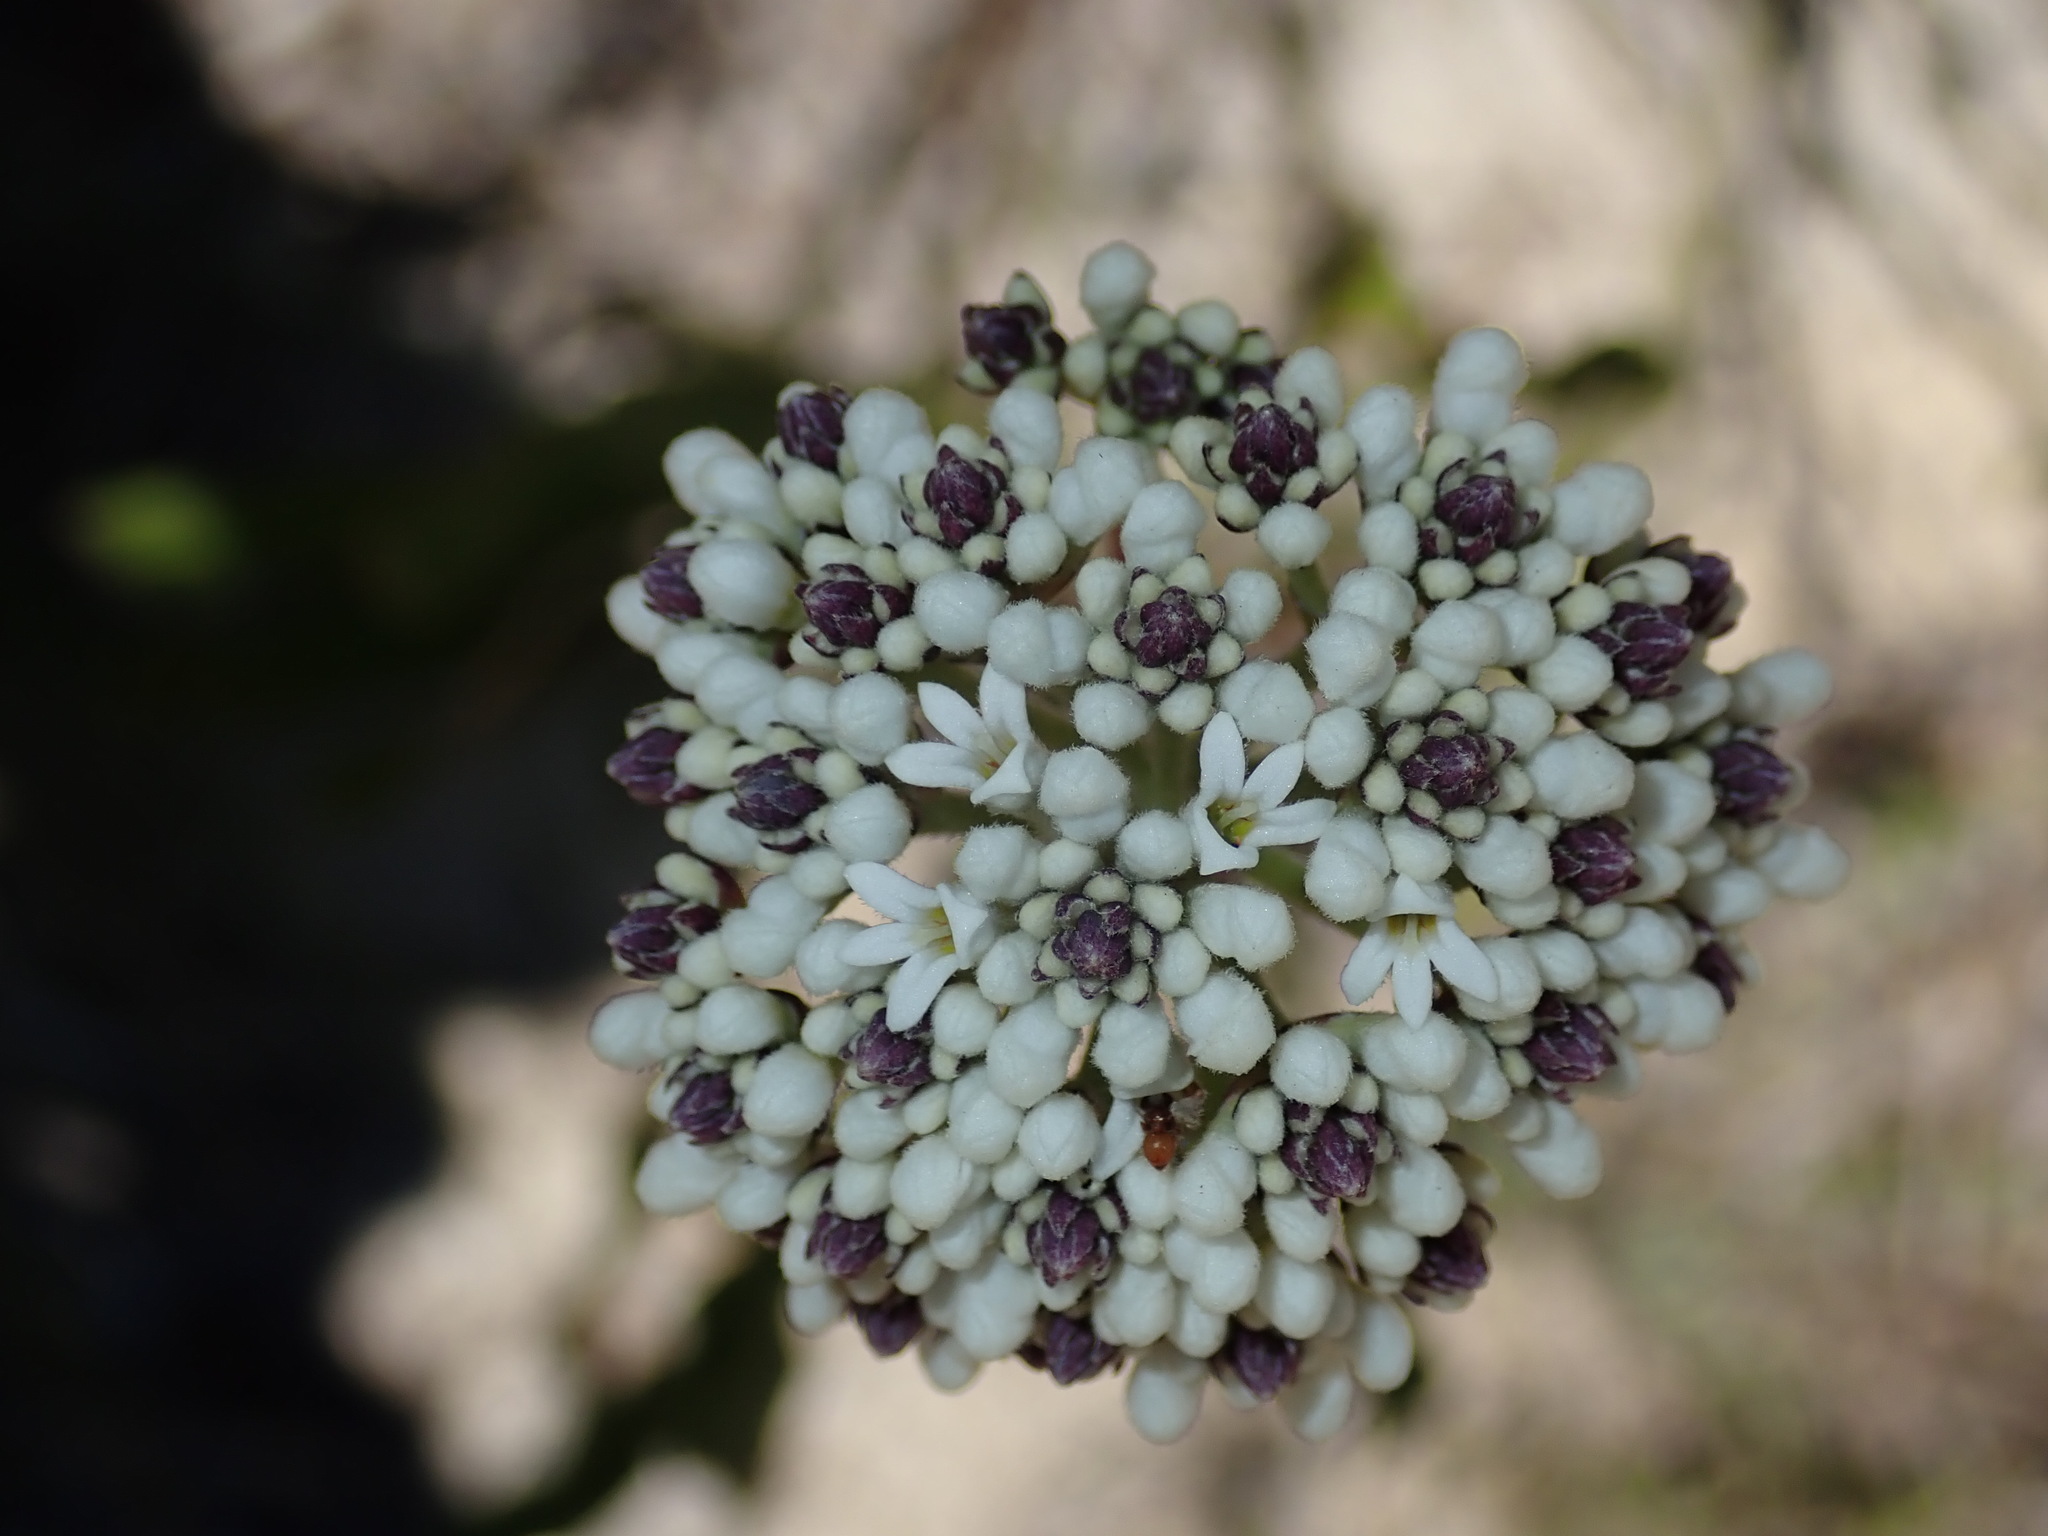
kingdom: Plantae
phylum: Tracheophyta
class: Magnoliopsida
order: Proteales
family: Proteaceae
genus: Conospermum
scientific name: Conospermum longifolium
